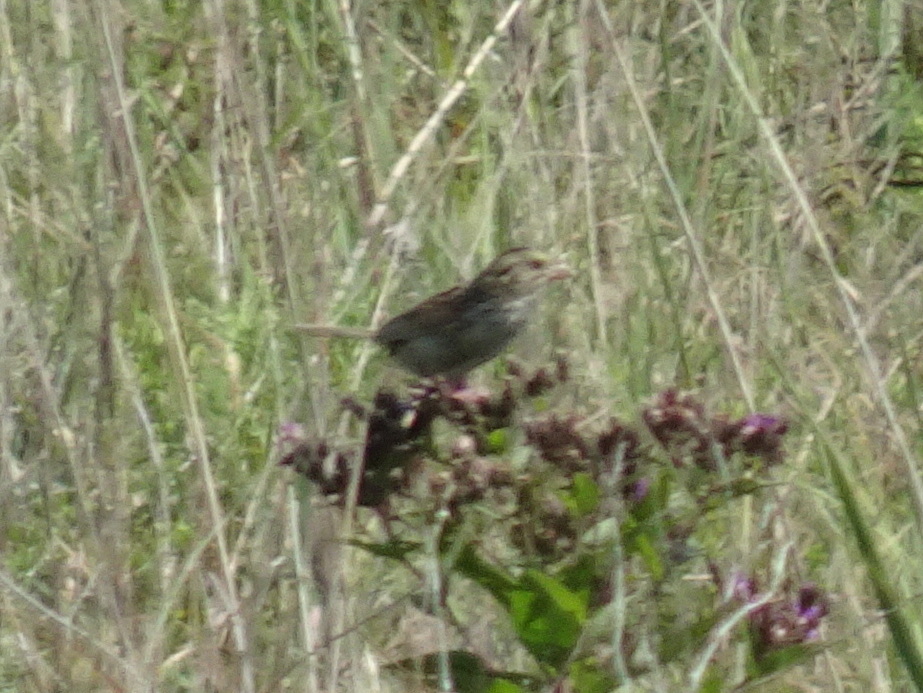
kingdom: Animalia
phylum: Chordata
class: Aves
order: Passeriformes
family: Passerellidae
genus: Centronyx
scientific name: Centronyx henslowii
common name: Henslow's sparrow
